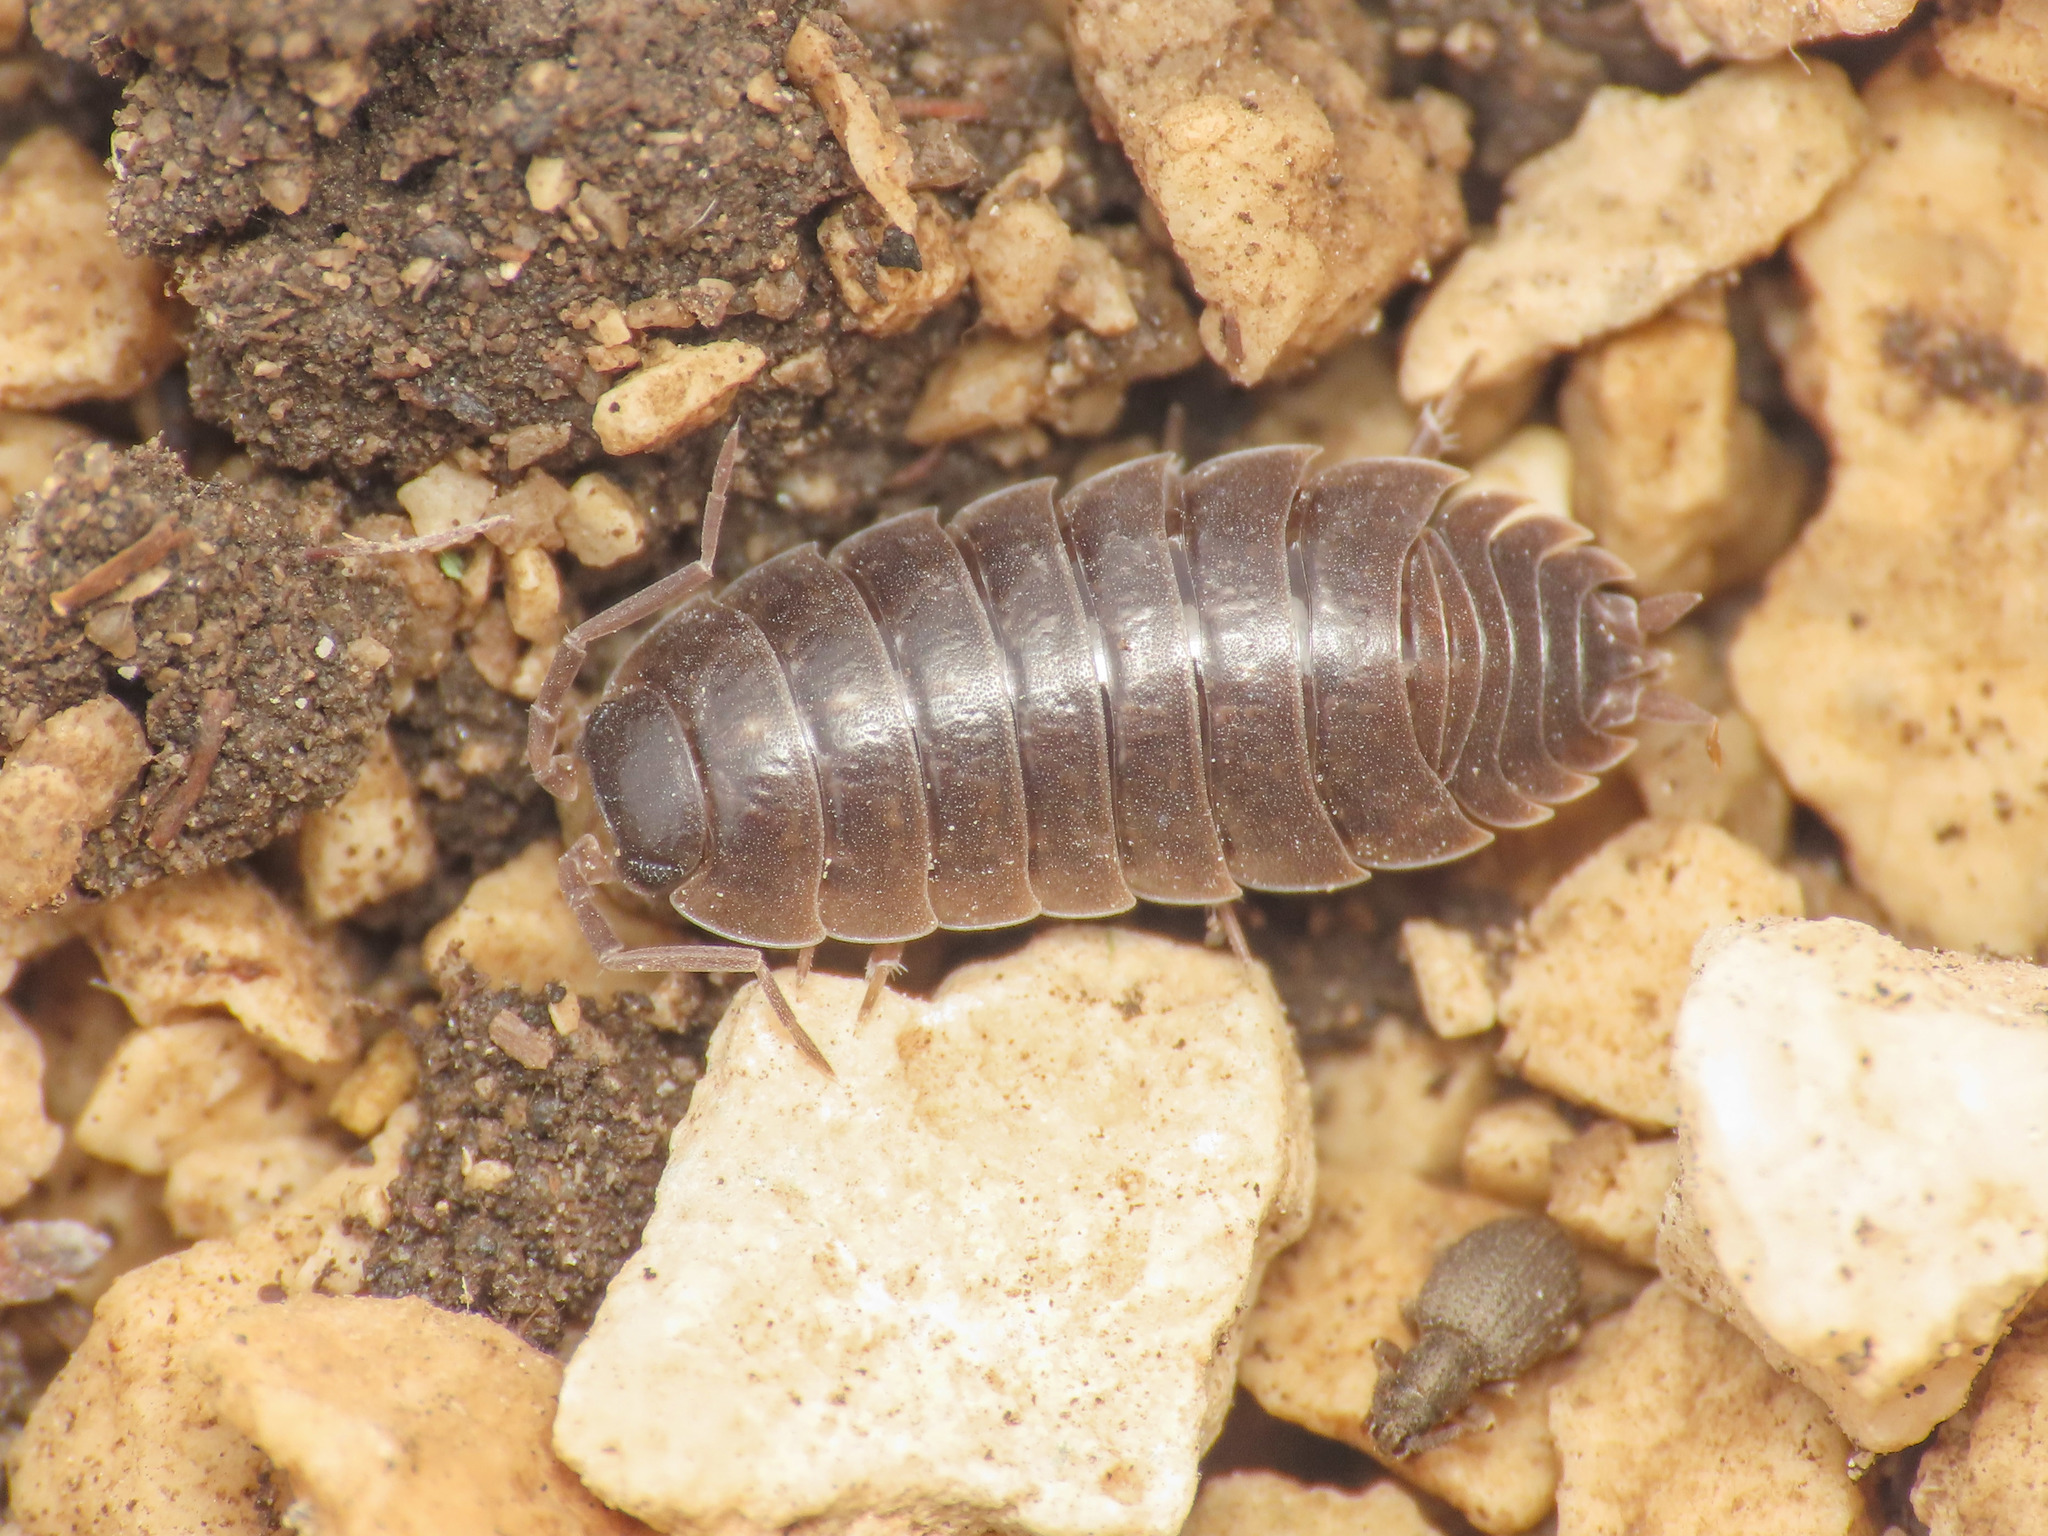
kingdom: Animalia
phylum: Arthropoda
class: Malacostraca
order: Isopoda
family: Porcellionidae
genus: Porcellio
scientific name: Porcellio glaberrimus
